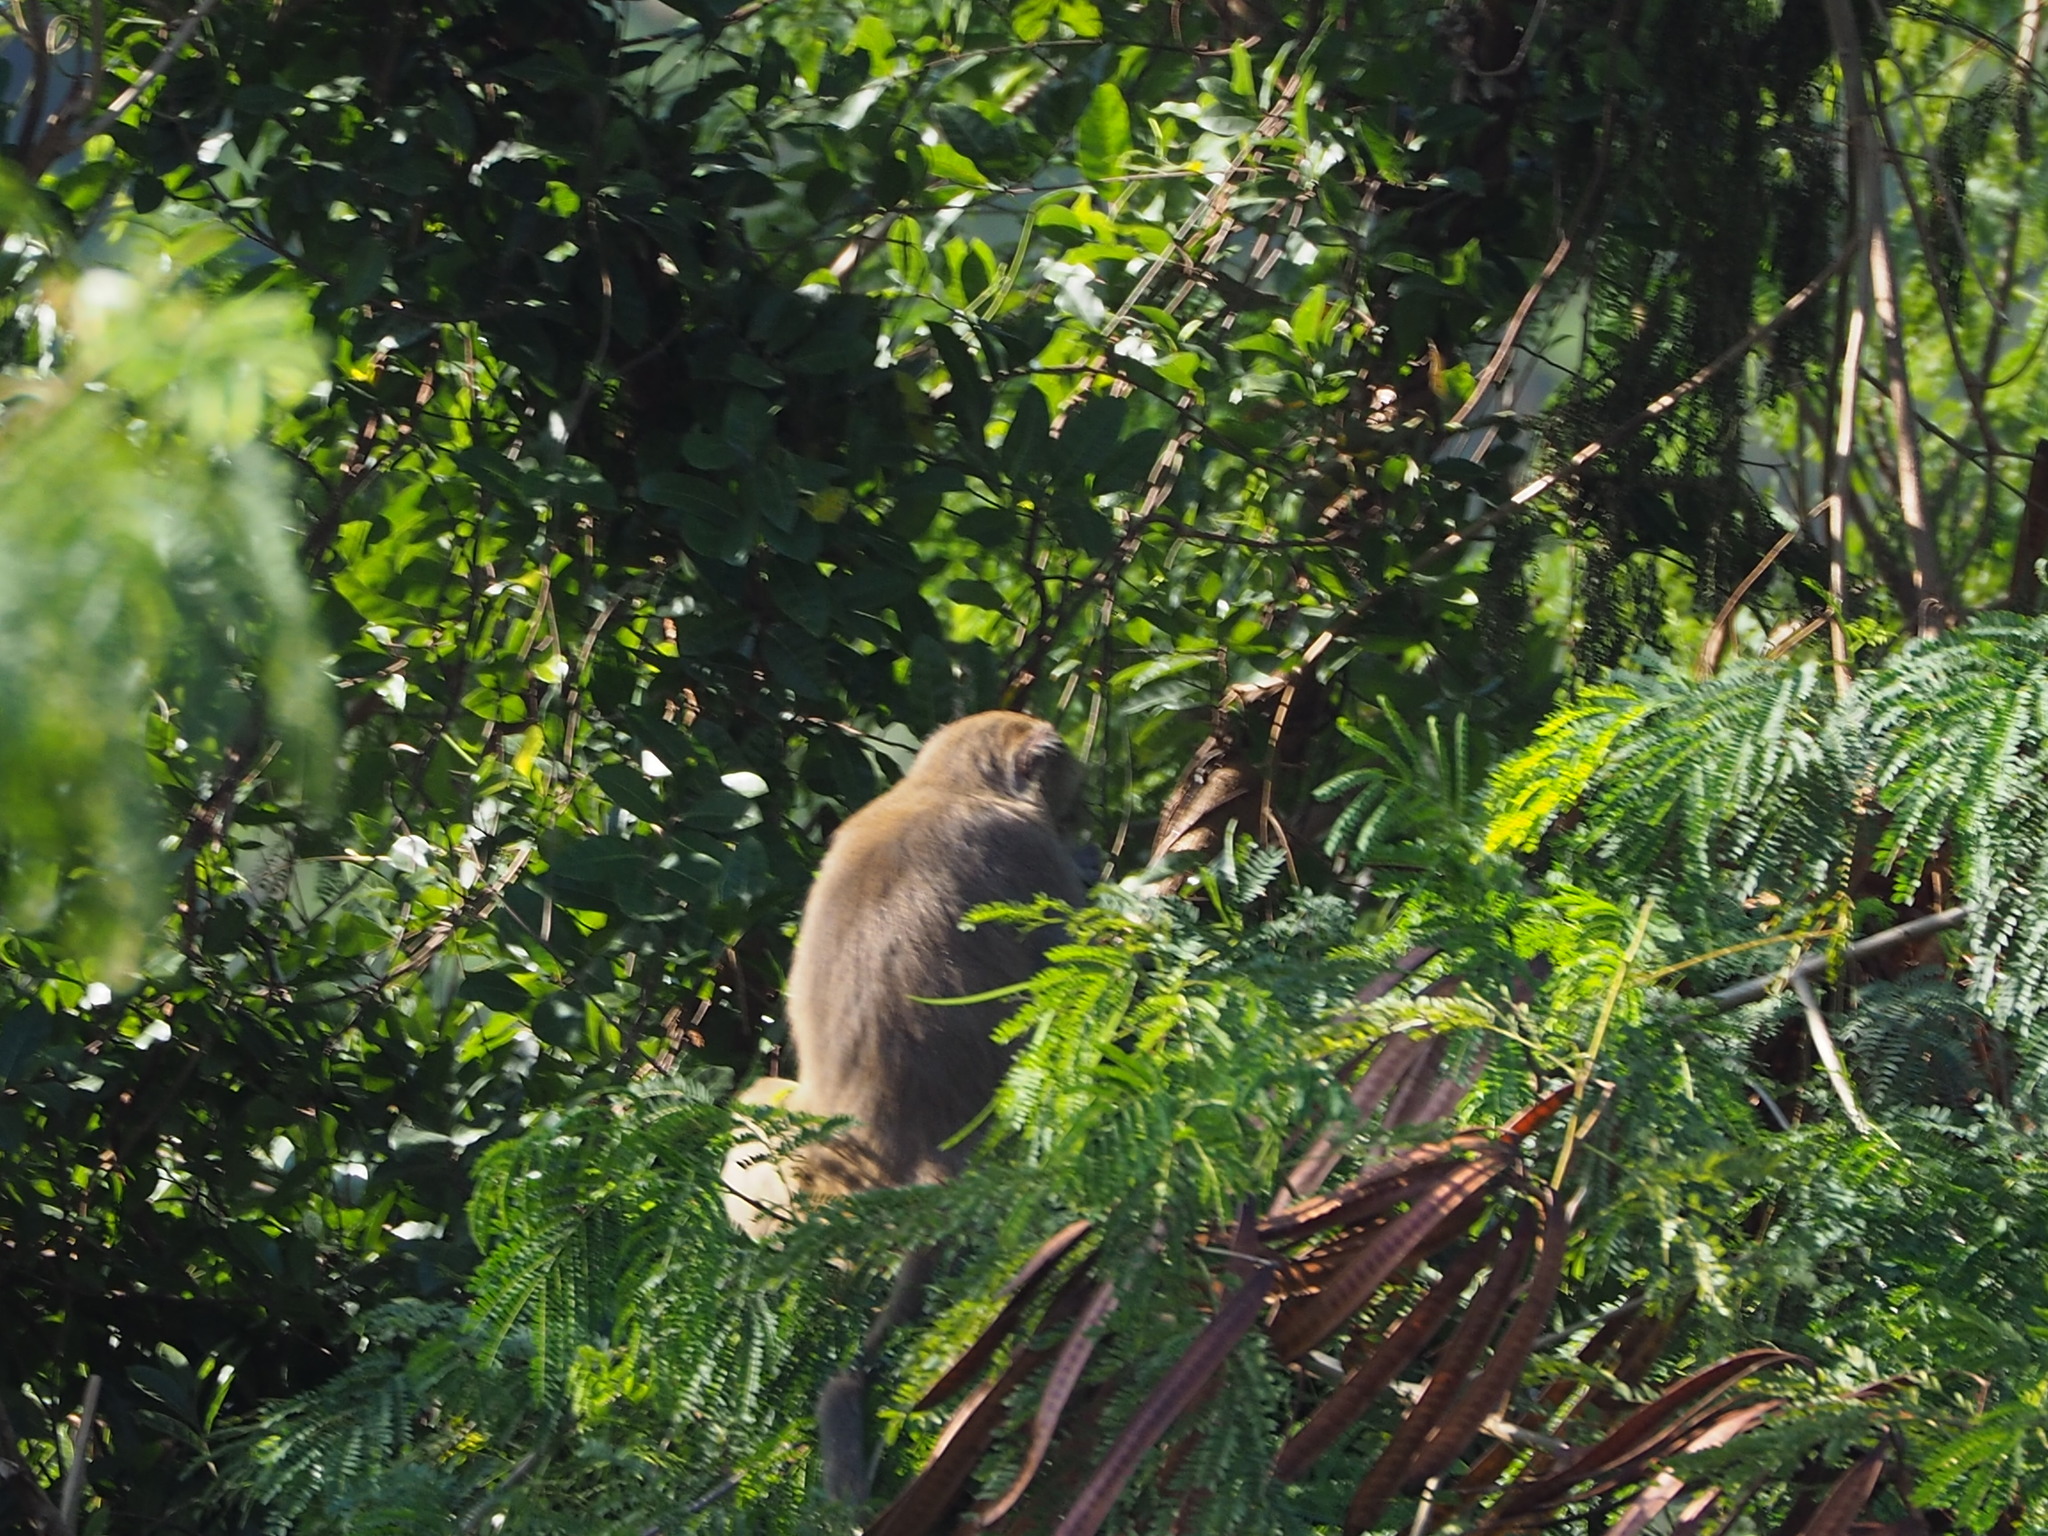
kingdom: Animalia
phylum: Chordata
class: Mammalia
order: Primates
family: Cercopithecidae
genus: Macaca
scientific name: Macaca cyclopis
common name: Formosan rock macaque
